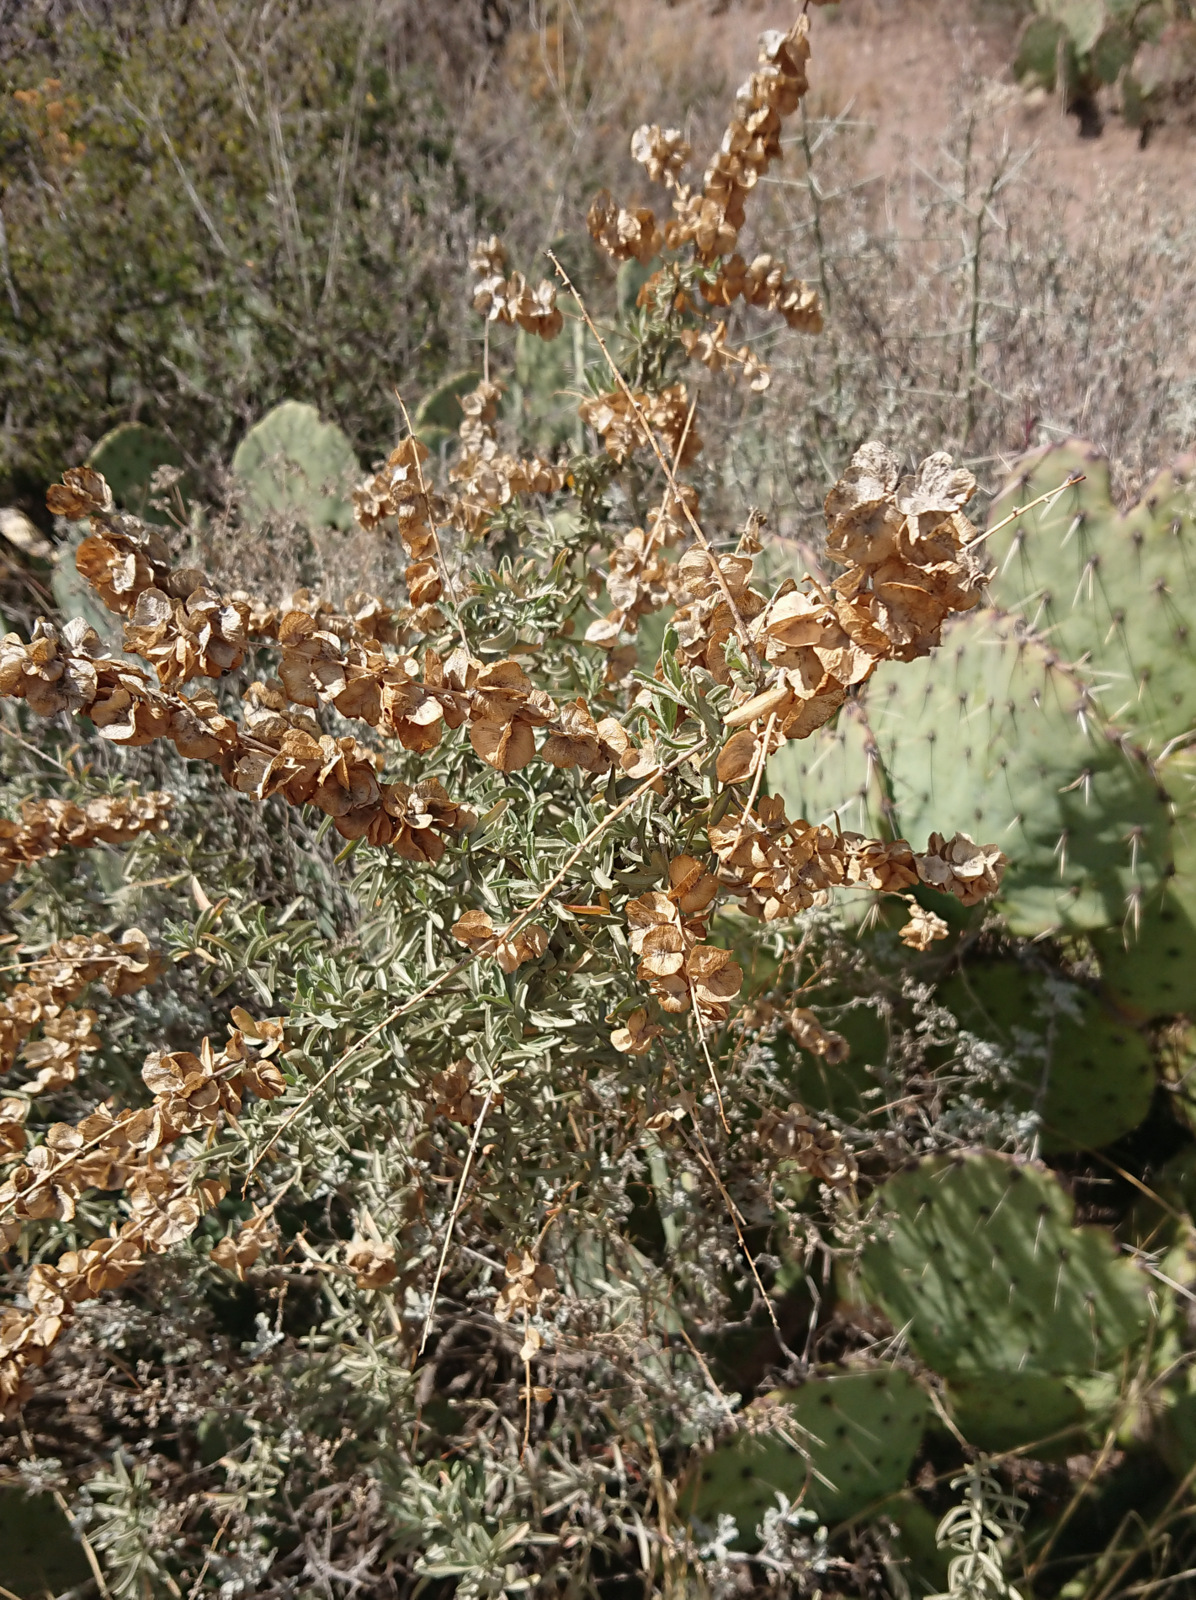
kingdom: Plantae
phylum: Tracheophyta
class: Magnoliopsida
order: Caryophyllales
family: Amaranthaceae
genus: Atriplex
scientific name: Atriplex canescens
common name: Four-wing saltbush
